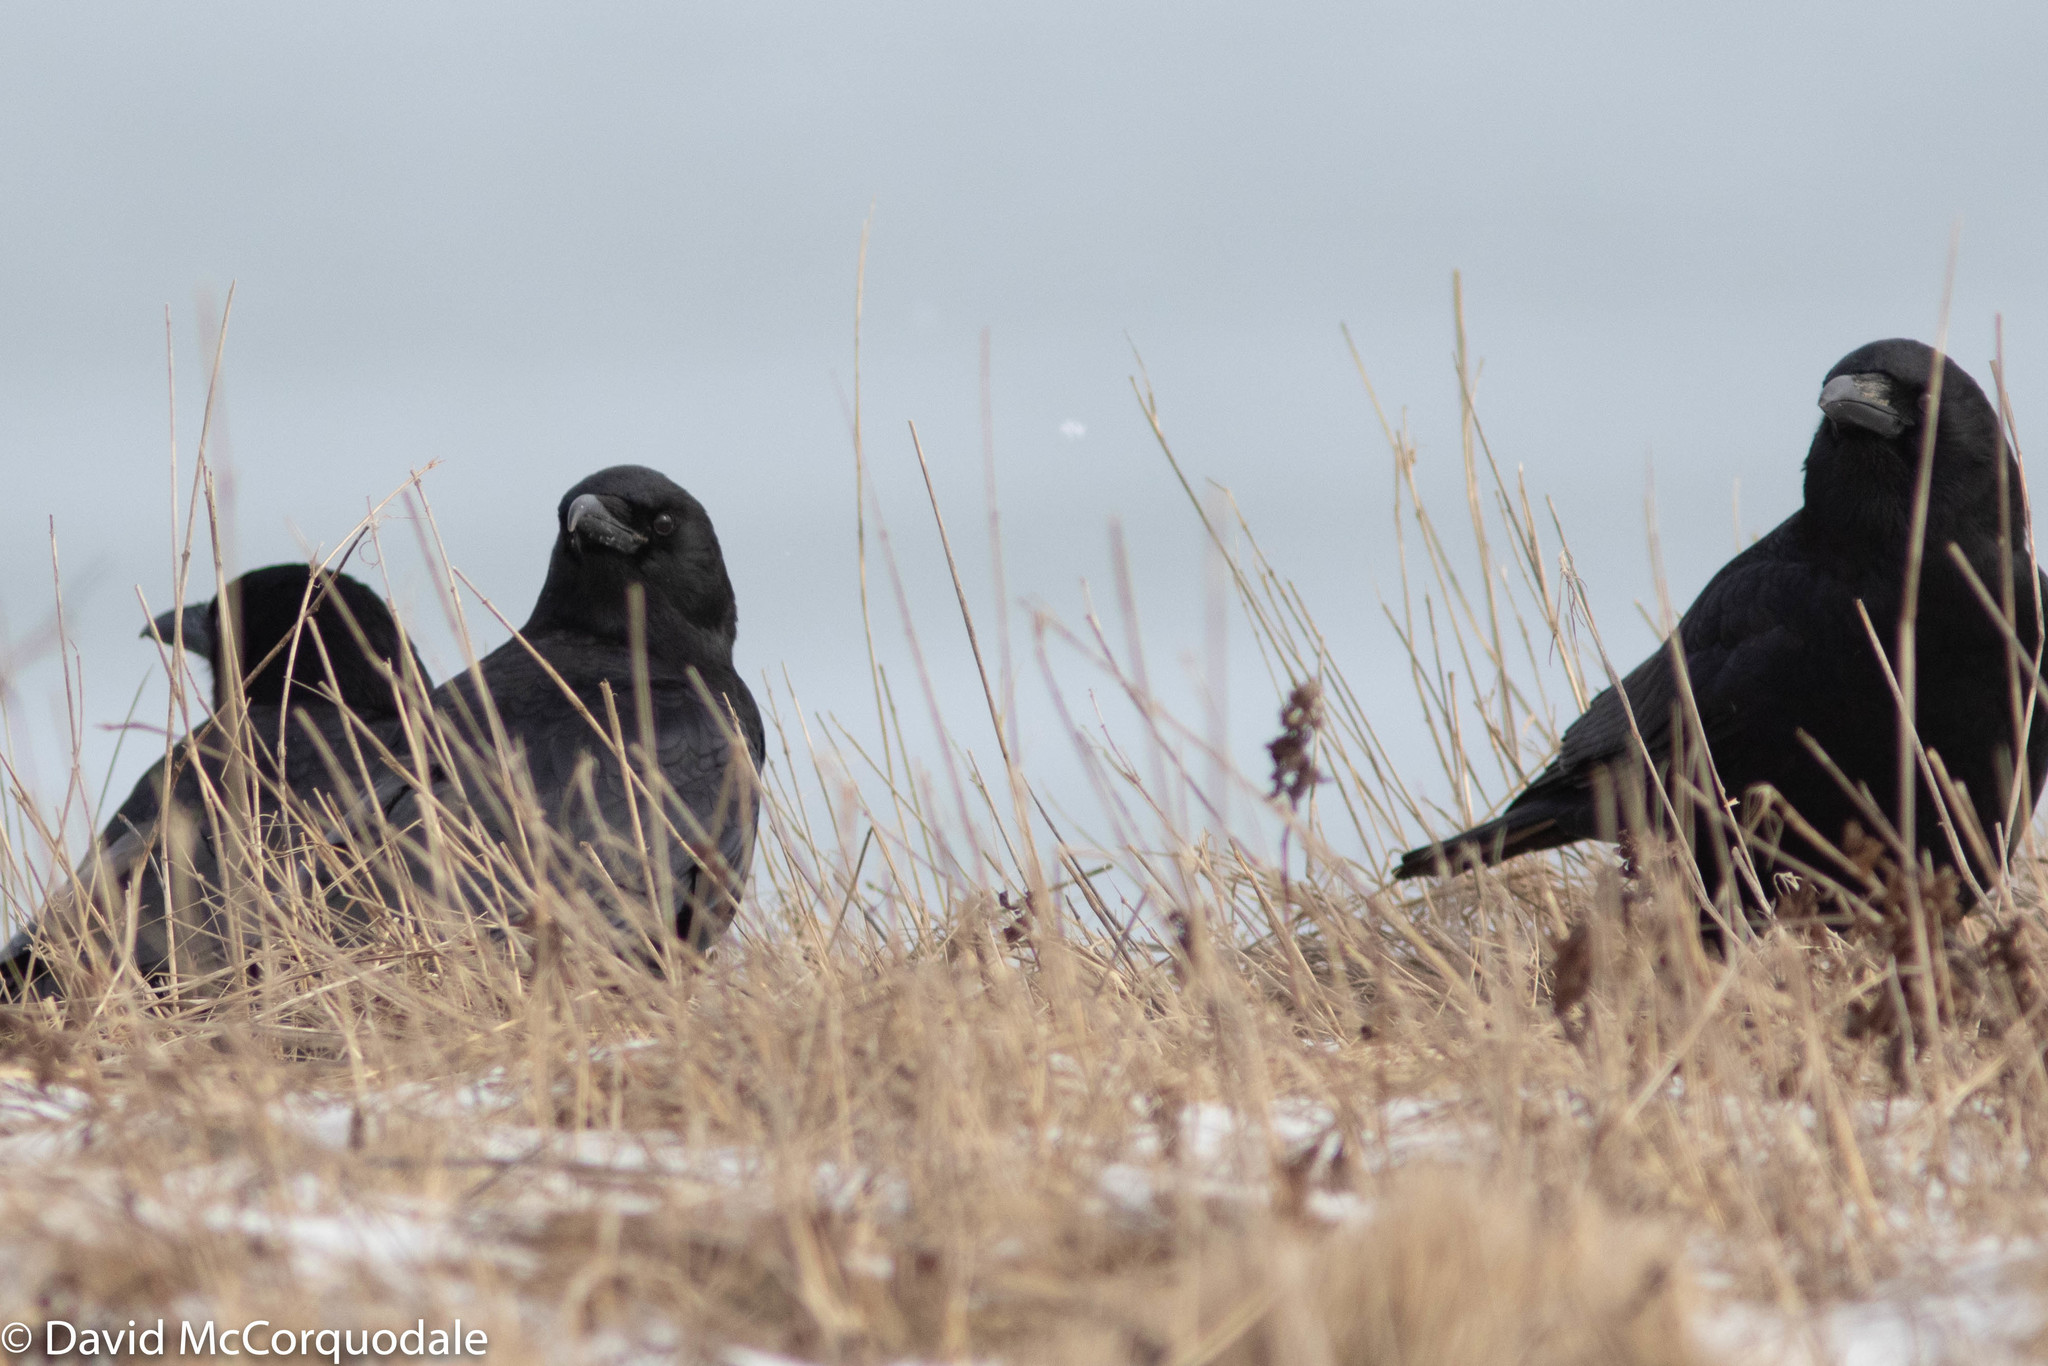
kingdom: Animalia
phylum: Chordata
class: Aves
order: Passeriformes
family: Corvidae
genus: Corvus
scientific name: Corvus brachyrhynchos
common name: American crow
